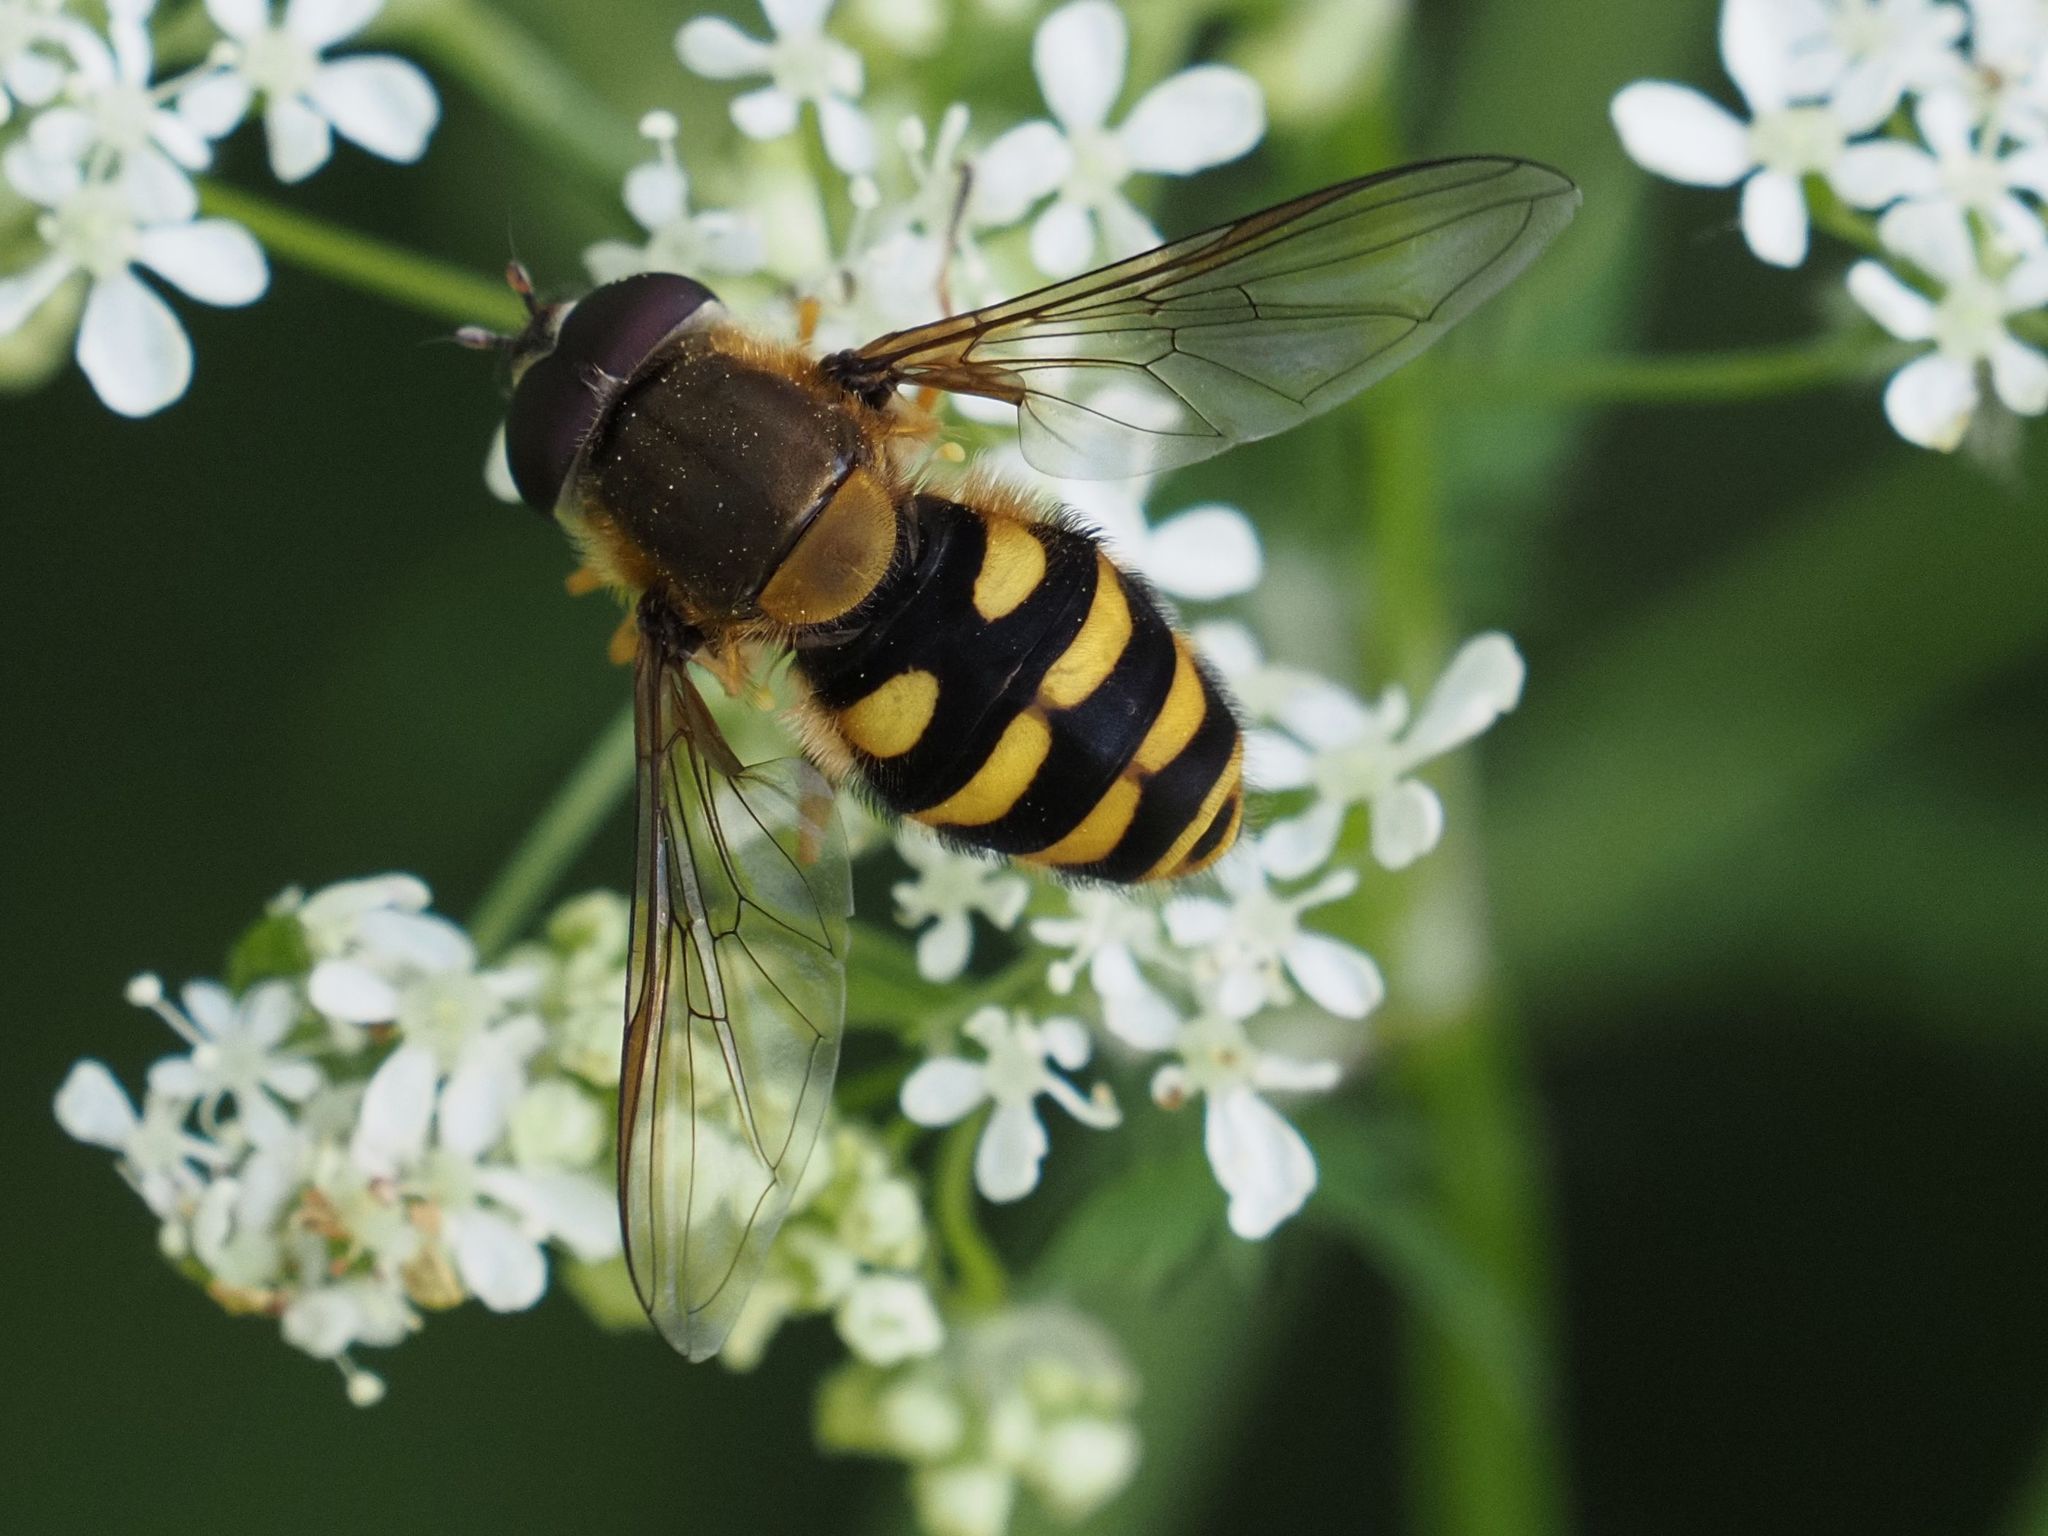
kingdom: Animalia
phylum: Arthropoda
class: Insecta
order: Diptera
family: Syrphidae
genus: Syrphus
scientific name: Syrphus
